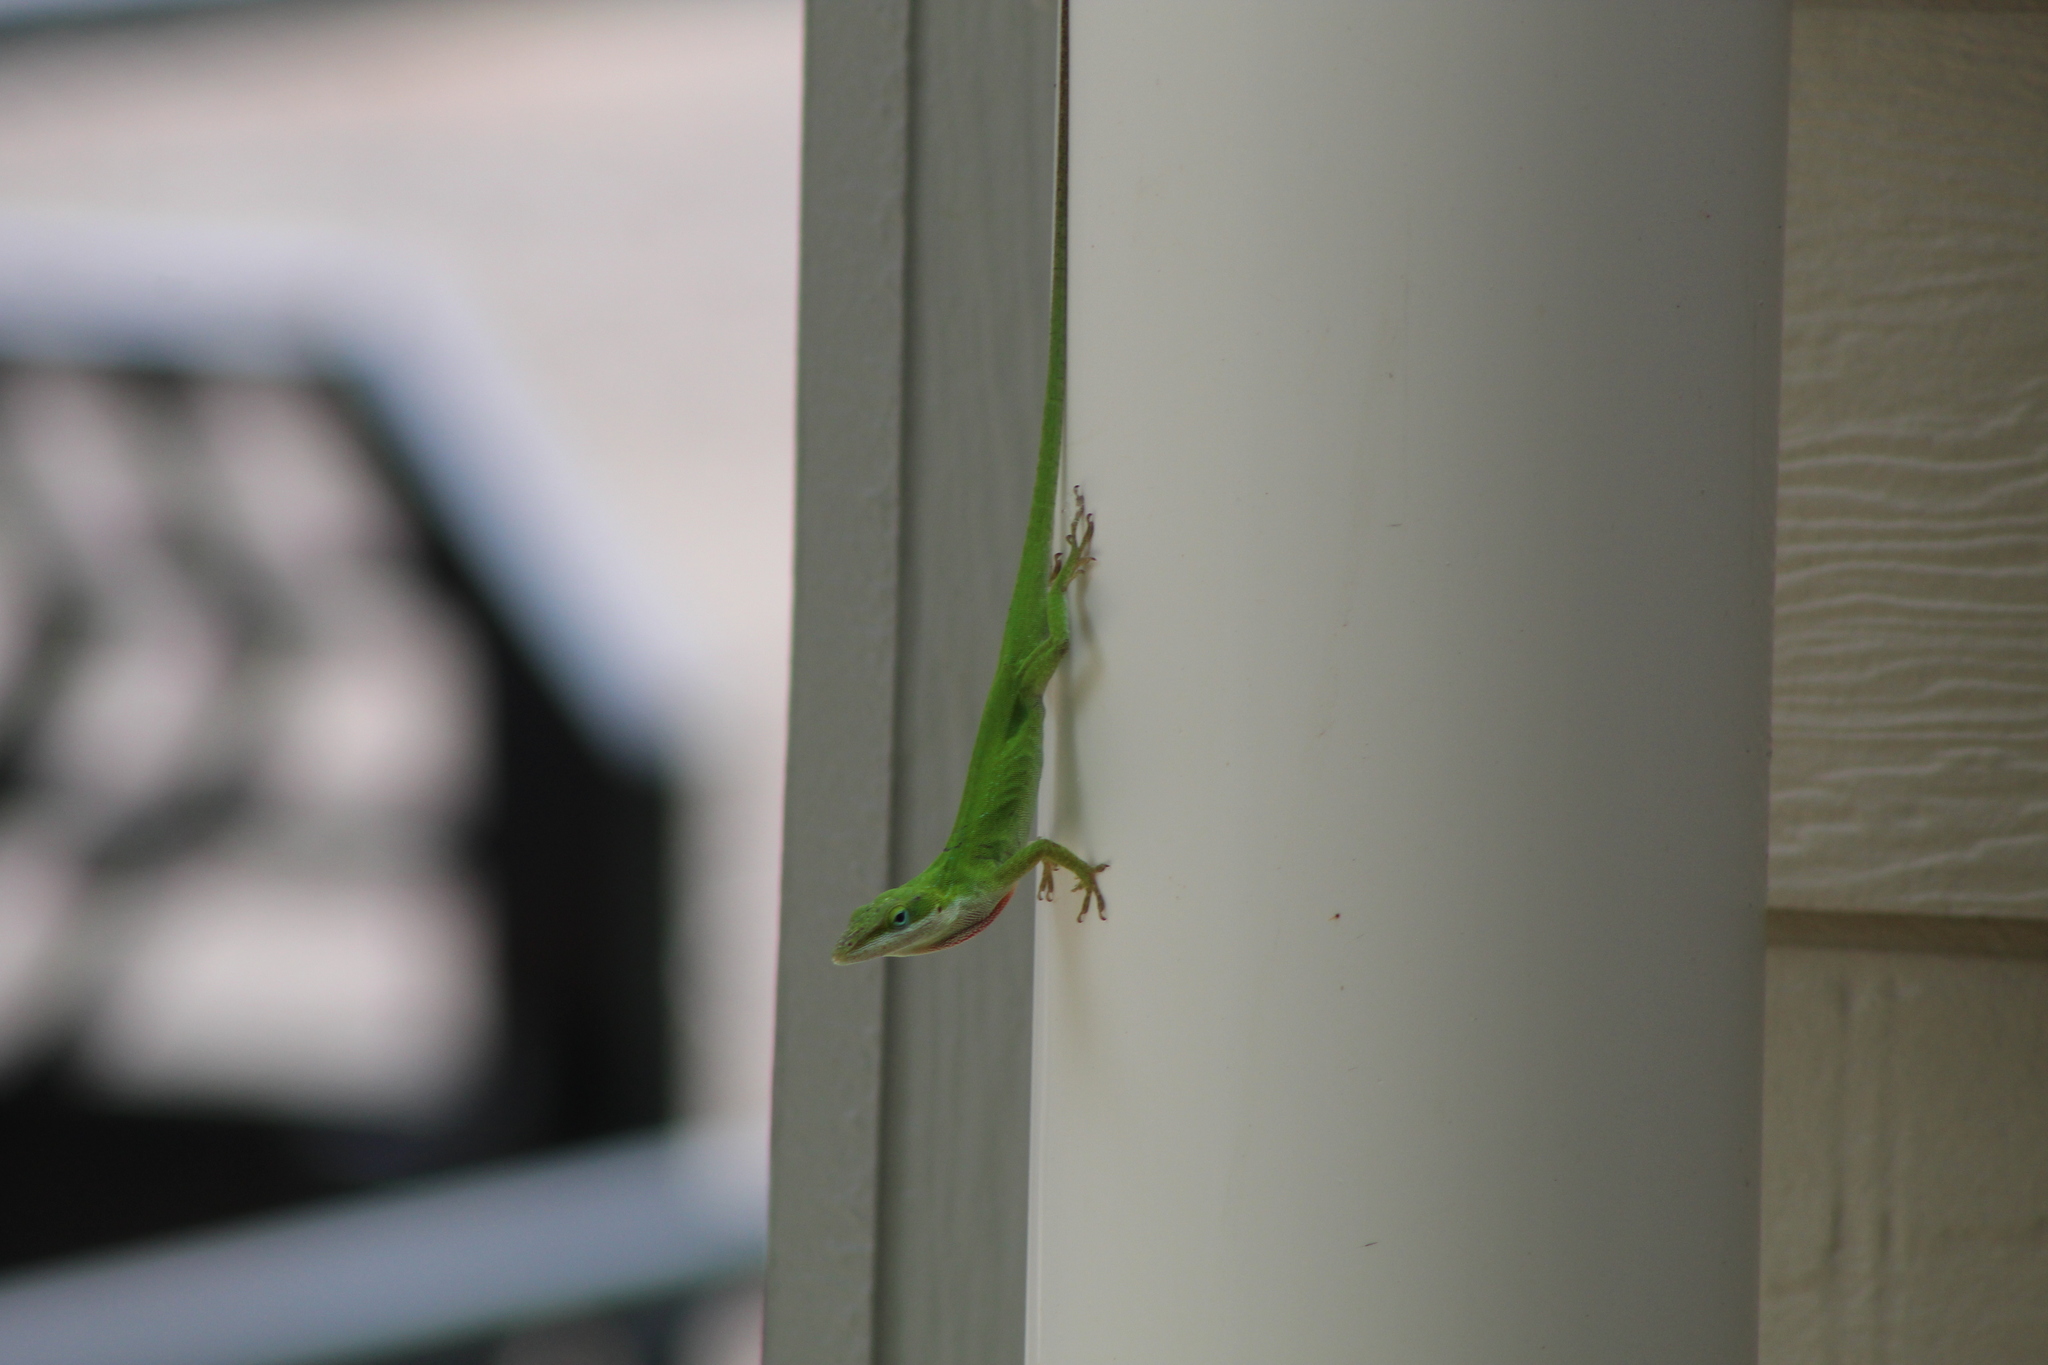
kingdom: Animalia
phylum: Chordata
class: Squamata
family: Dactyloidae
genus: Anolis
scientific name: Anolis carolinensis
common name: Green anole
